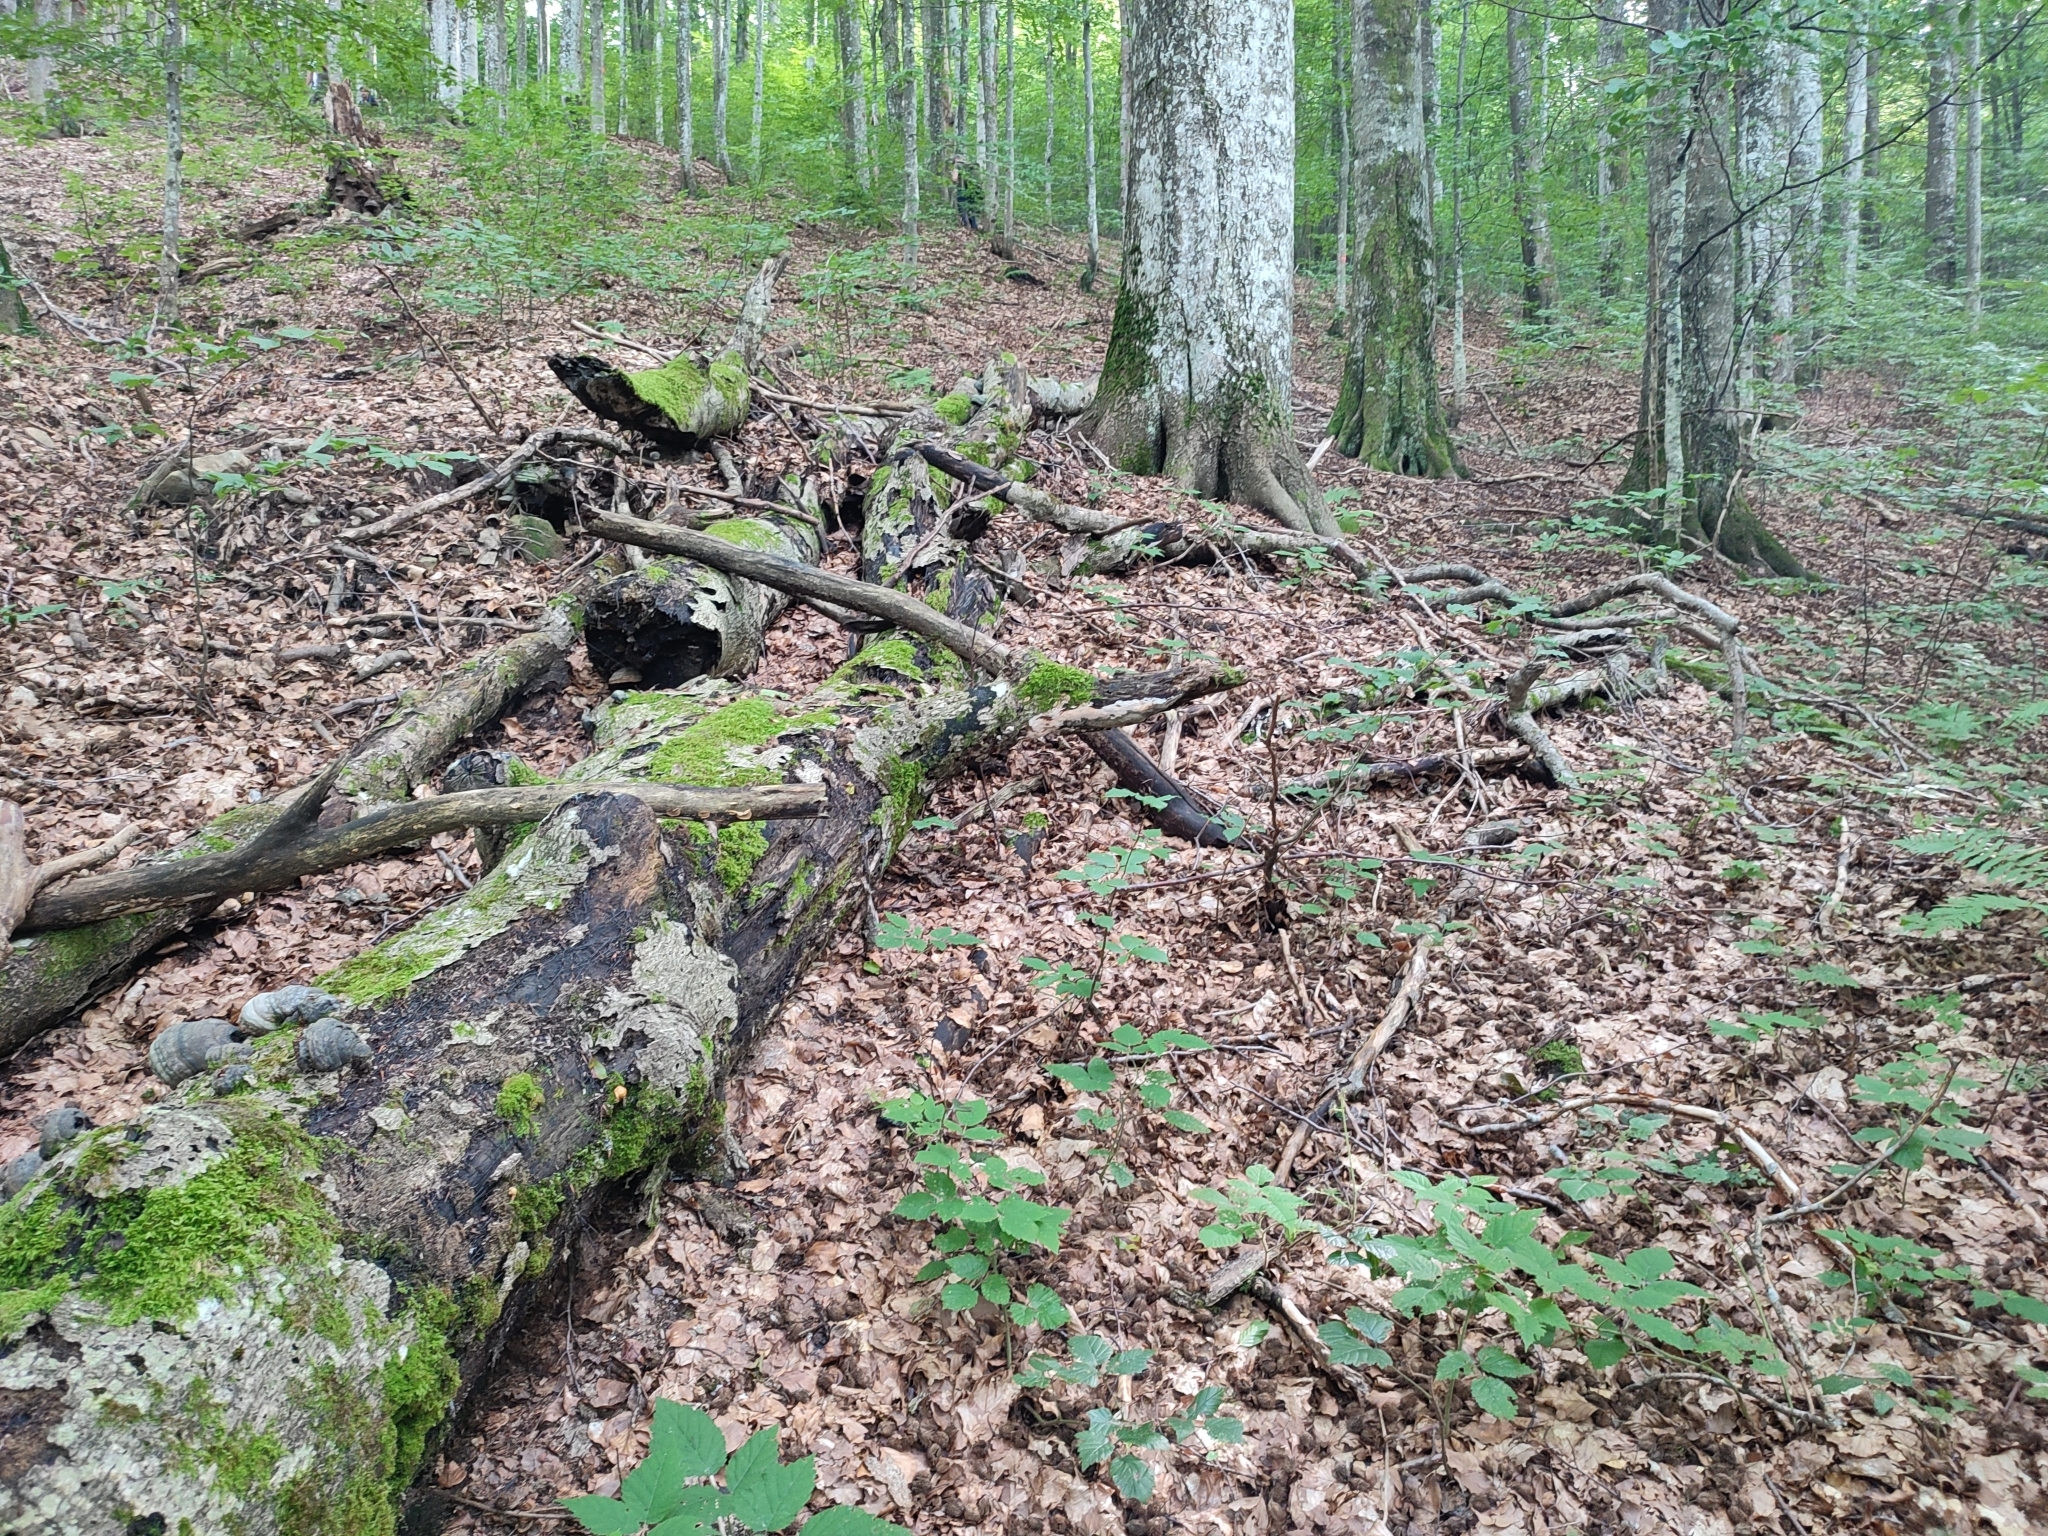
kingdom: Plantae
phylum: Tracheophyta
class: Magnoliopsida
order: Fagales
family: Fagaceae
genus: Fagus
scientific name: Fagus sylvatica
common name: Beech
